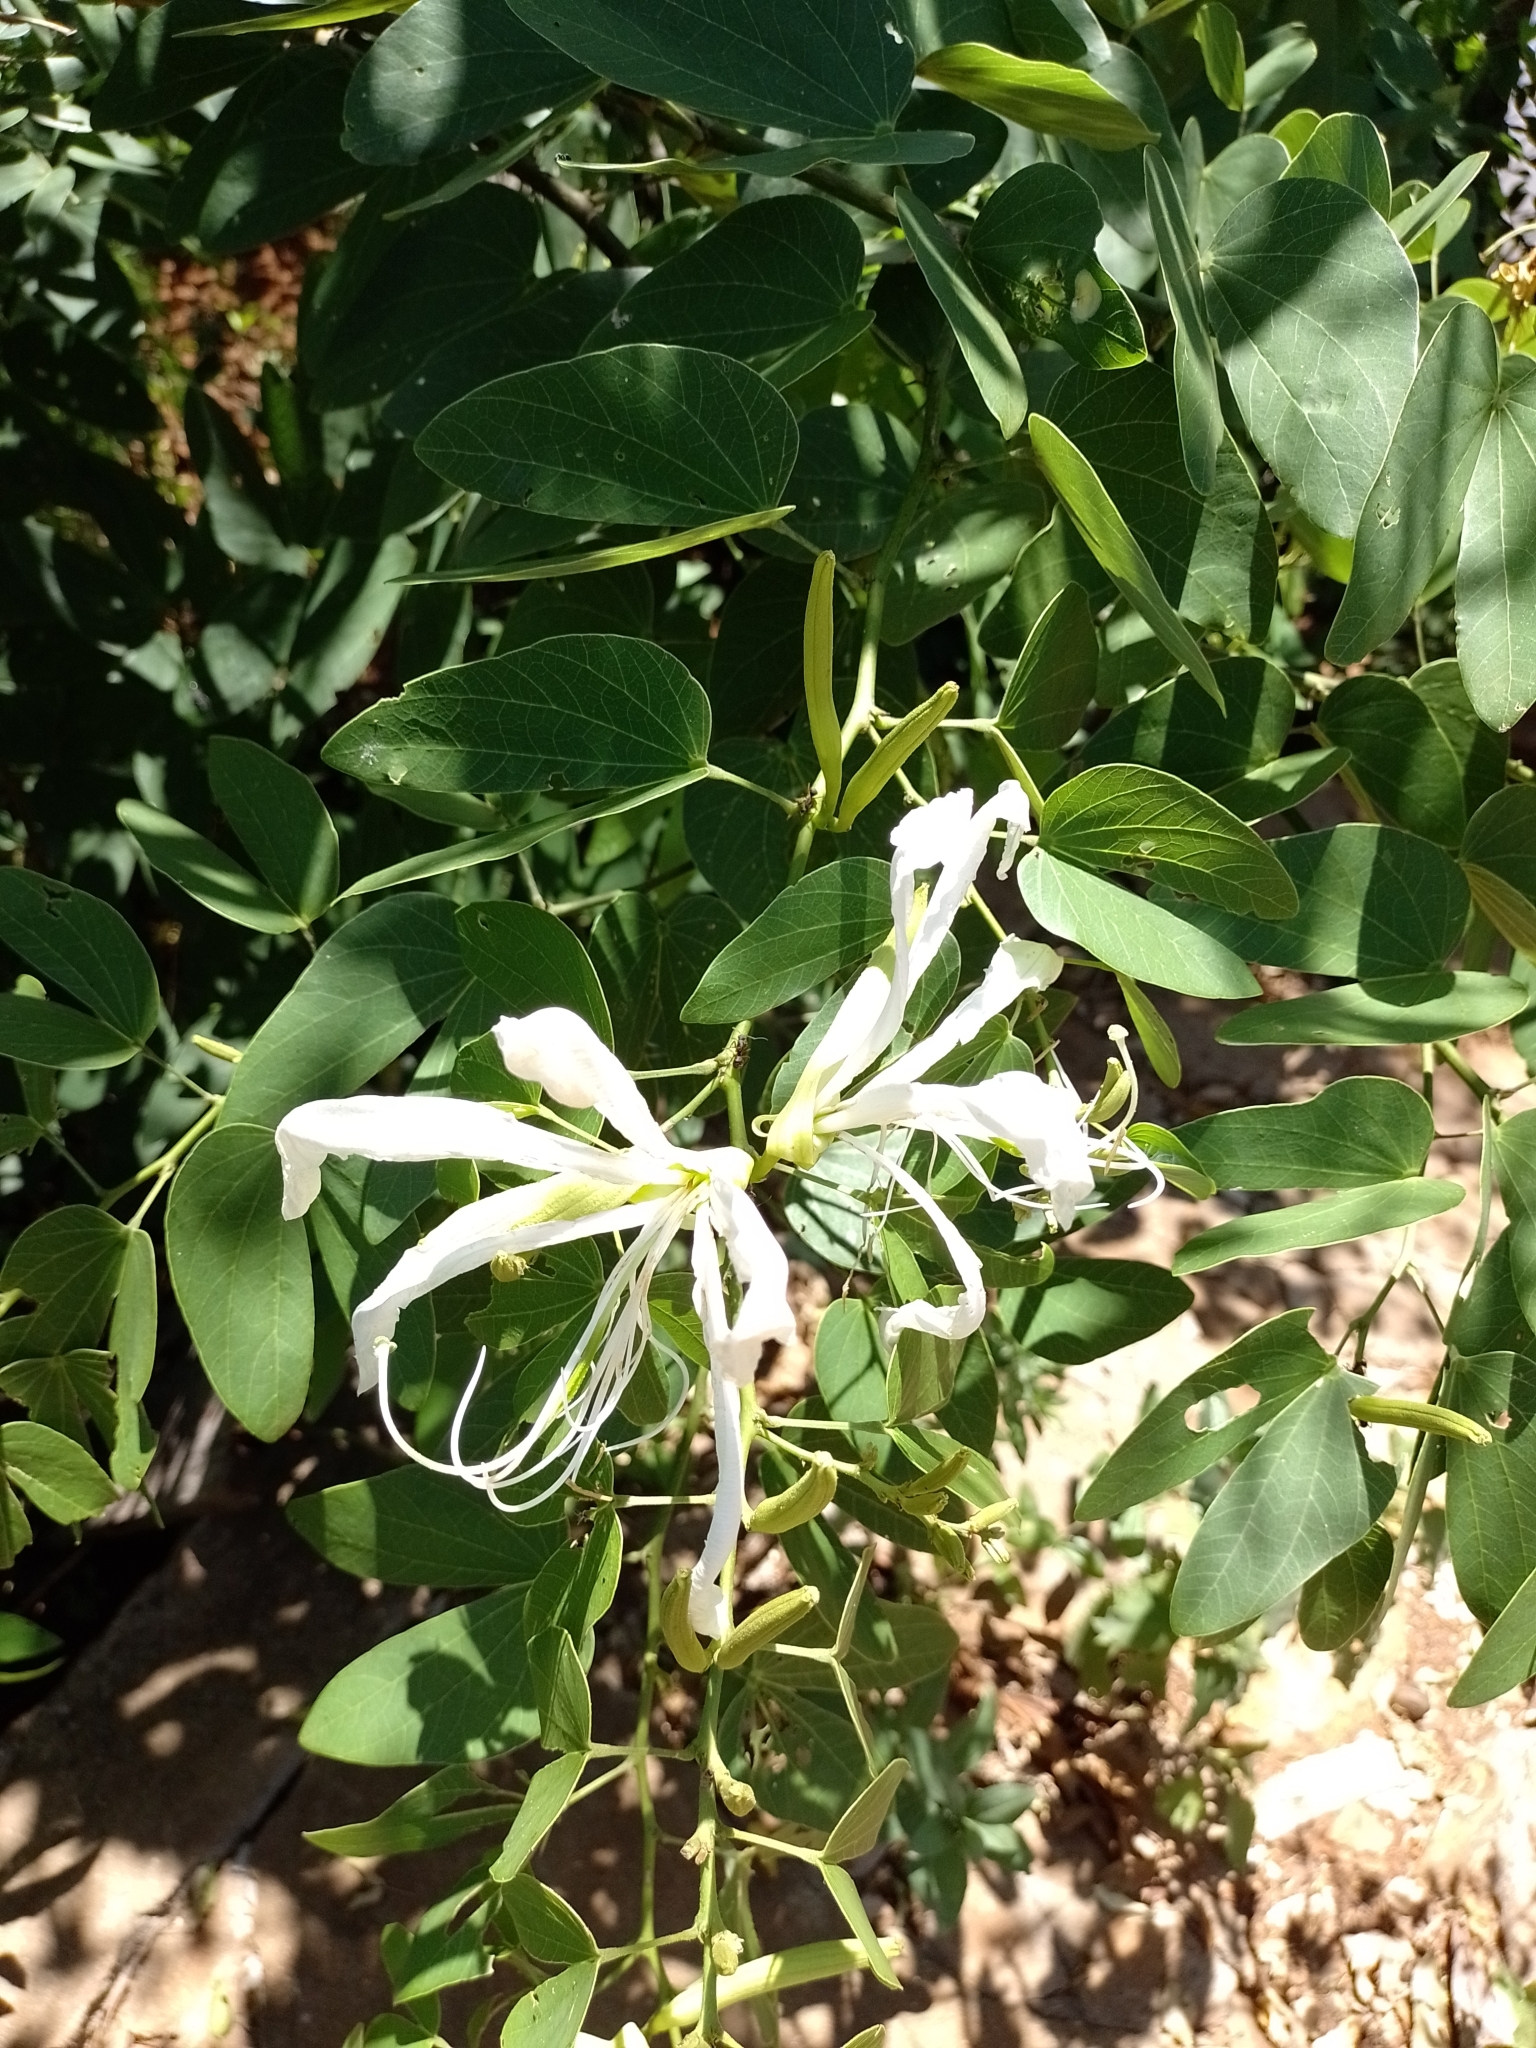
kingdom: Plantae
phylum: Tracheophyta
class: Magnoliopsida
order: Fabales
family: Fabaceae
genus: Bauhinia
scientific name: Bauhinia forficata
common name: Orchid tree
